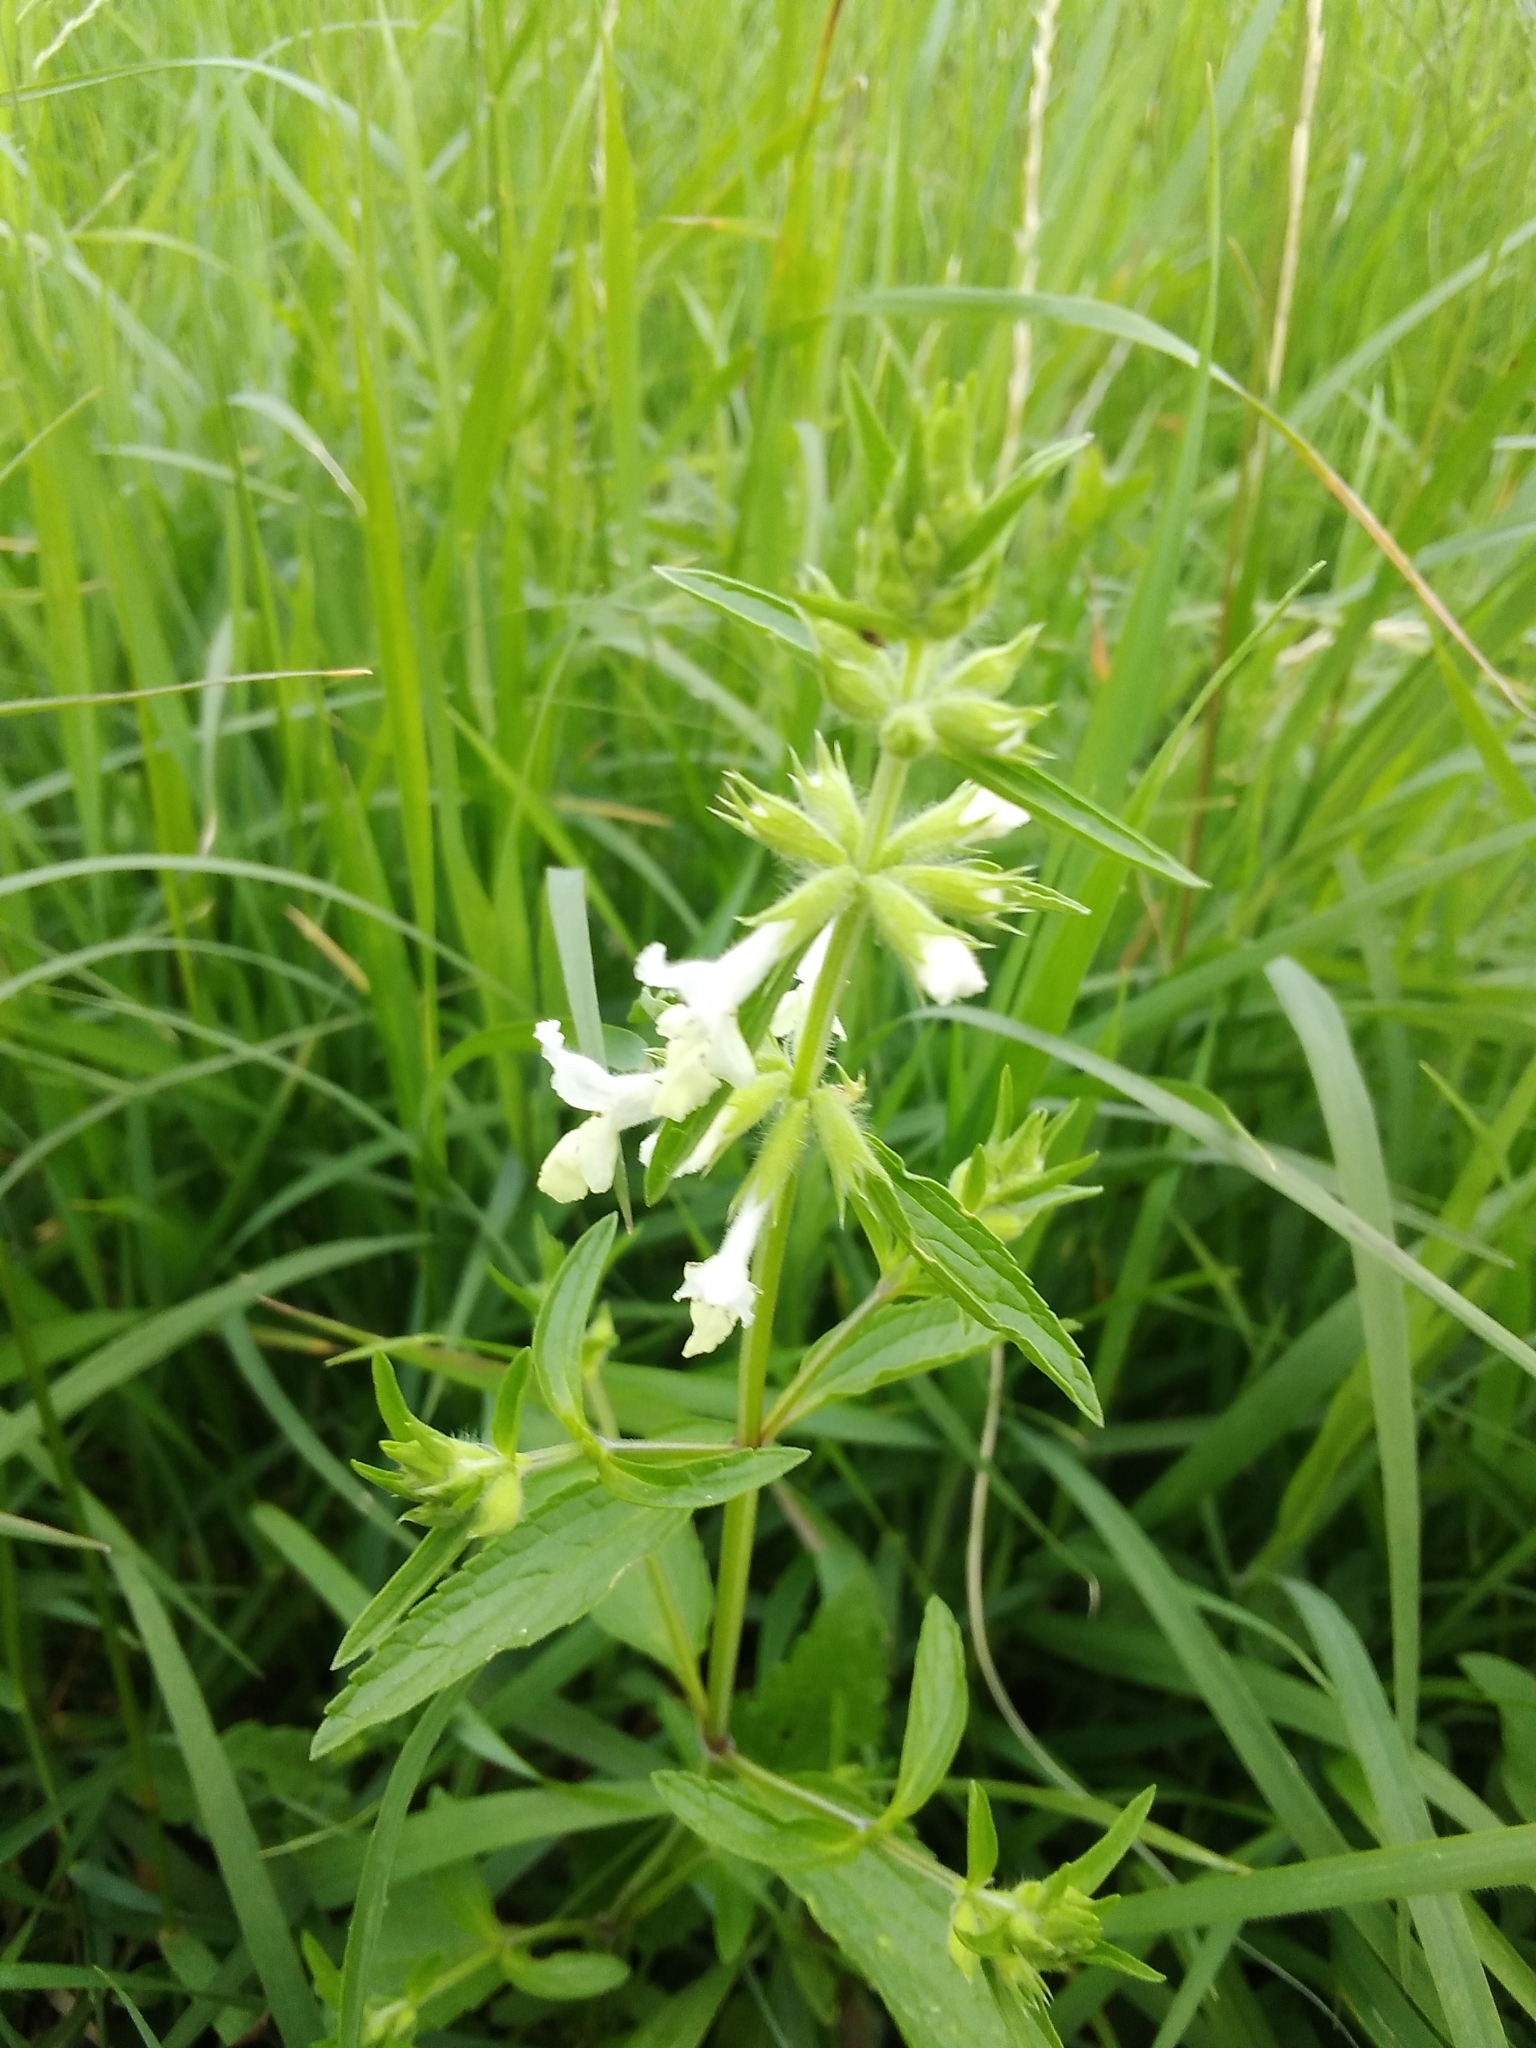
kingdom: Plantae
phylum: Tracheophyta
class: Magnoliopsida
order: Lamiales
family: Lamiaceae
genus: Stachys
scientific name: Stachys annua
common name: Annual yellow-woundwort
